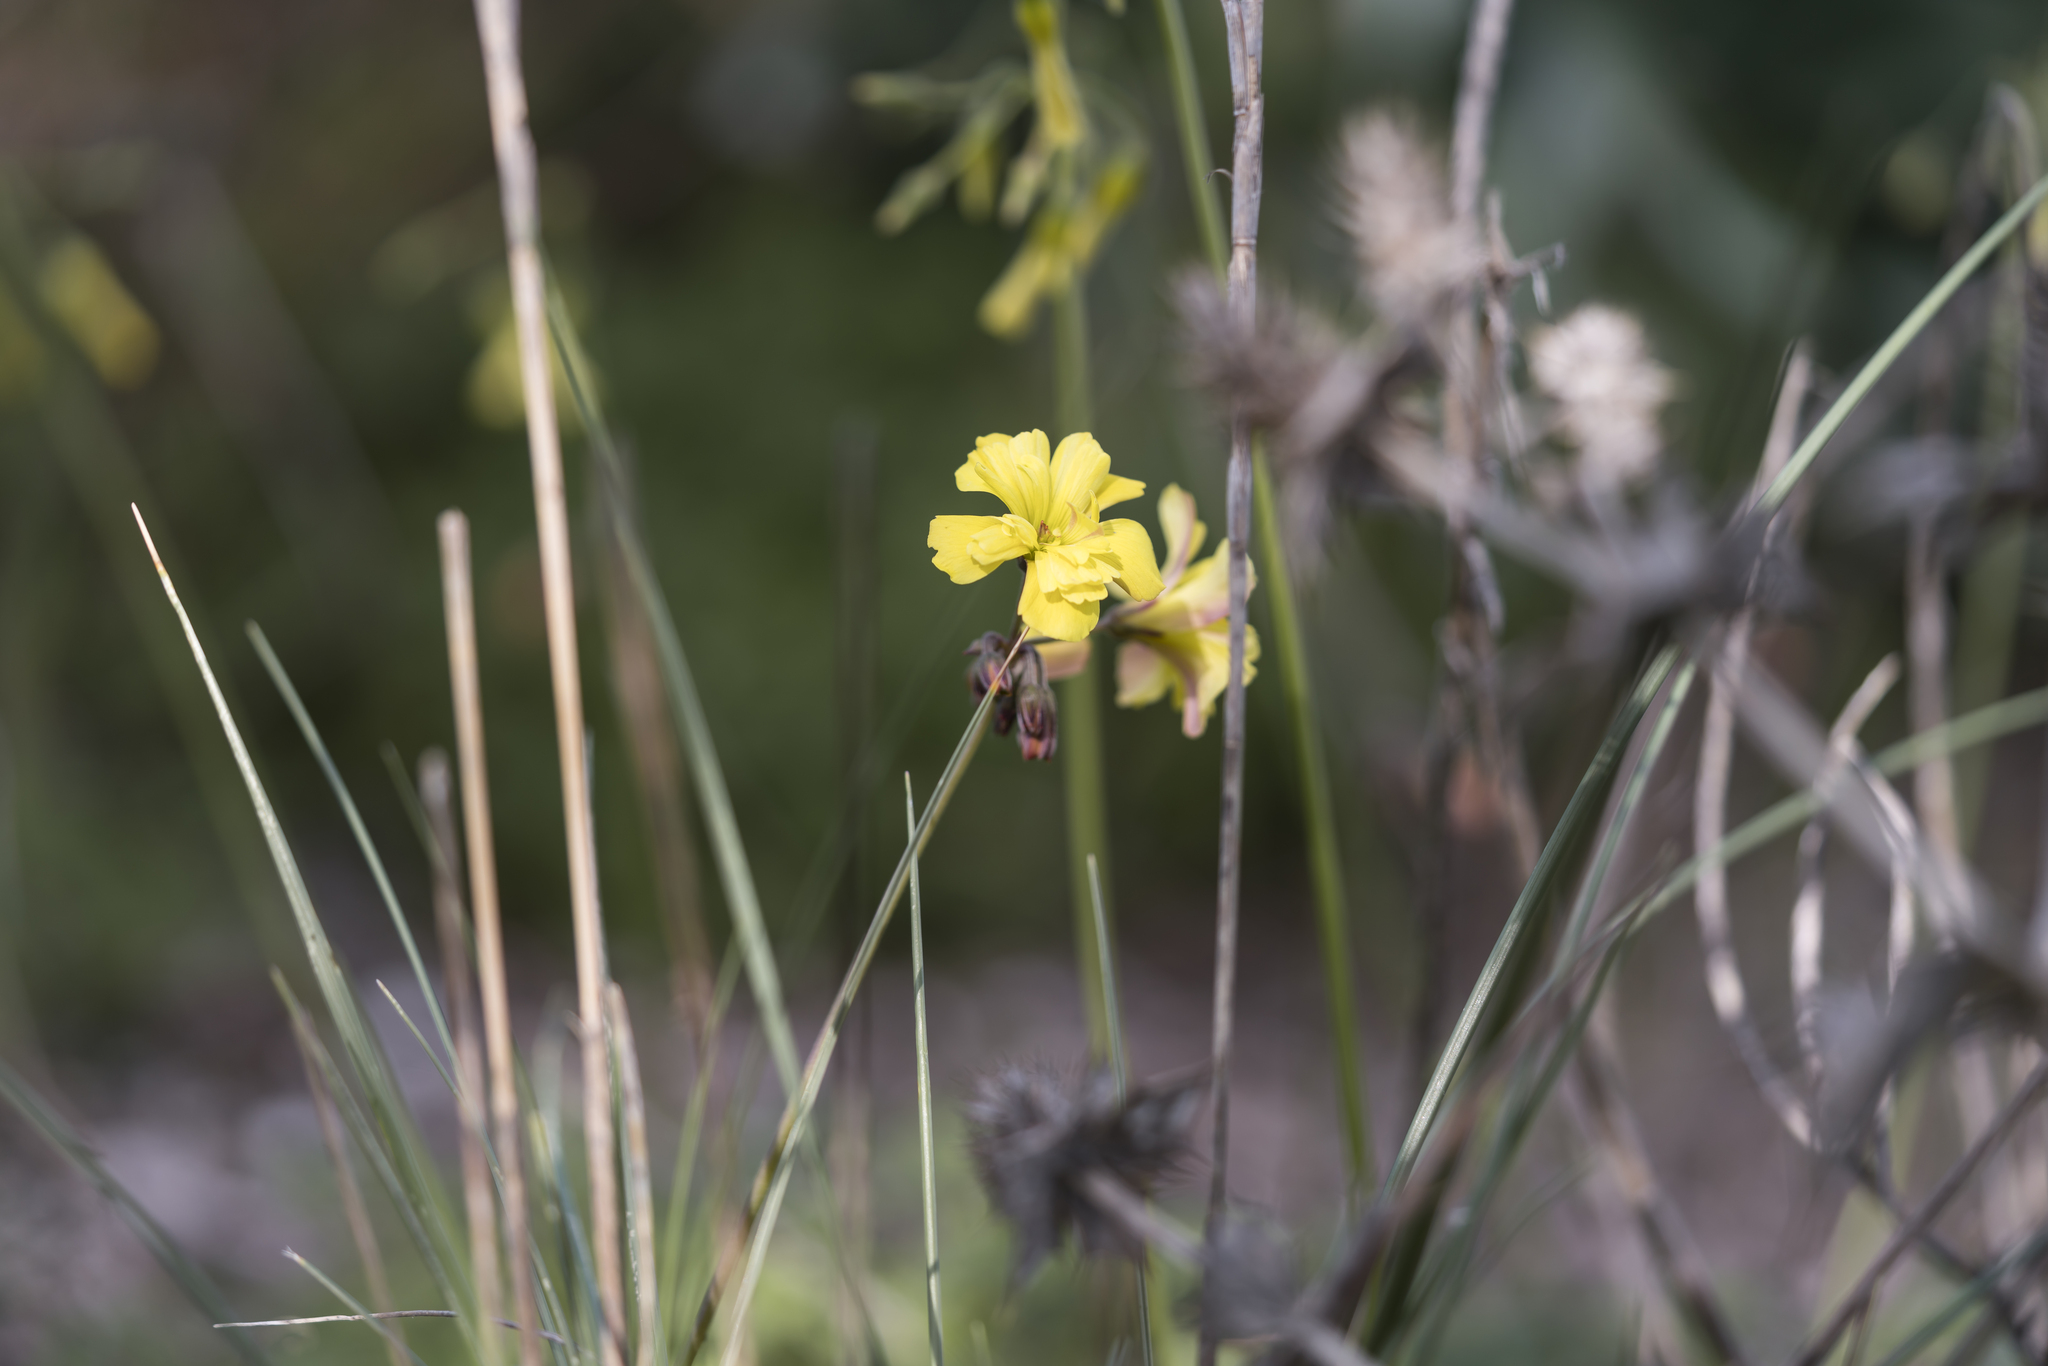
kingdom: Plantae
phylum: Tracheophyta
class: Magnoliopsida
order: Oxalidales
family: Oxalidaceae
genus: Oxalis
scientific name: Oxalis pes-caprae
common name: Bermuda-buttercup
